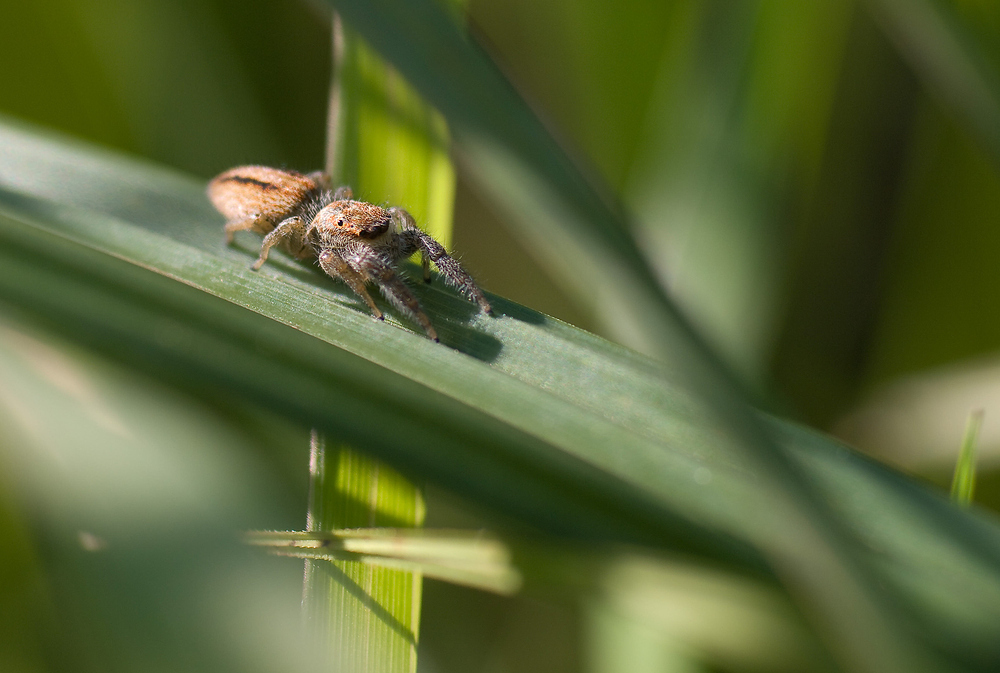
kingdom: Animalia
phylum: Arthropoda
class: Arachnida
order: Araneae
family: Salticidae
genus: Marpissa
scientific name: Marpissa radiata
